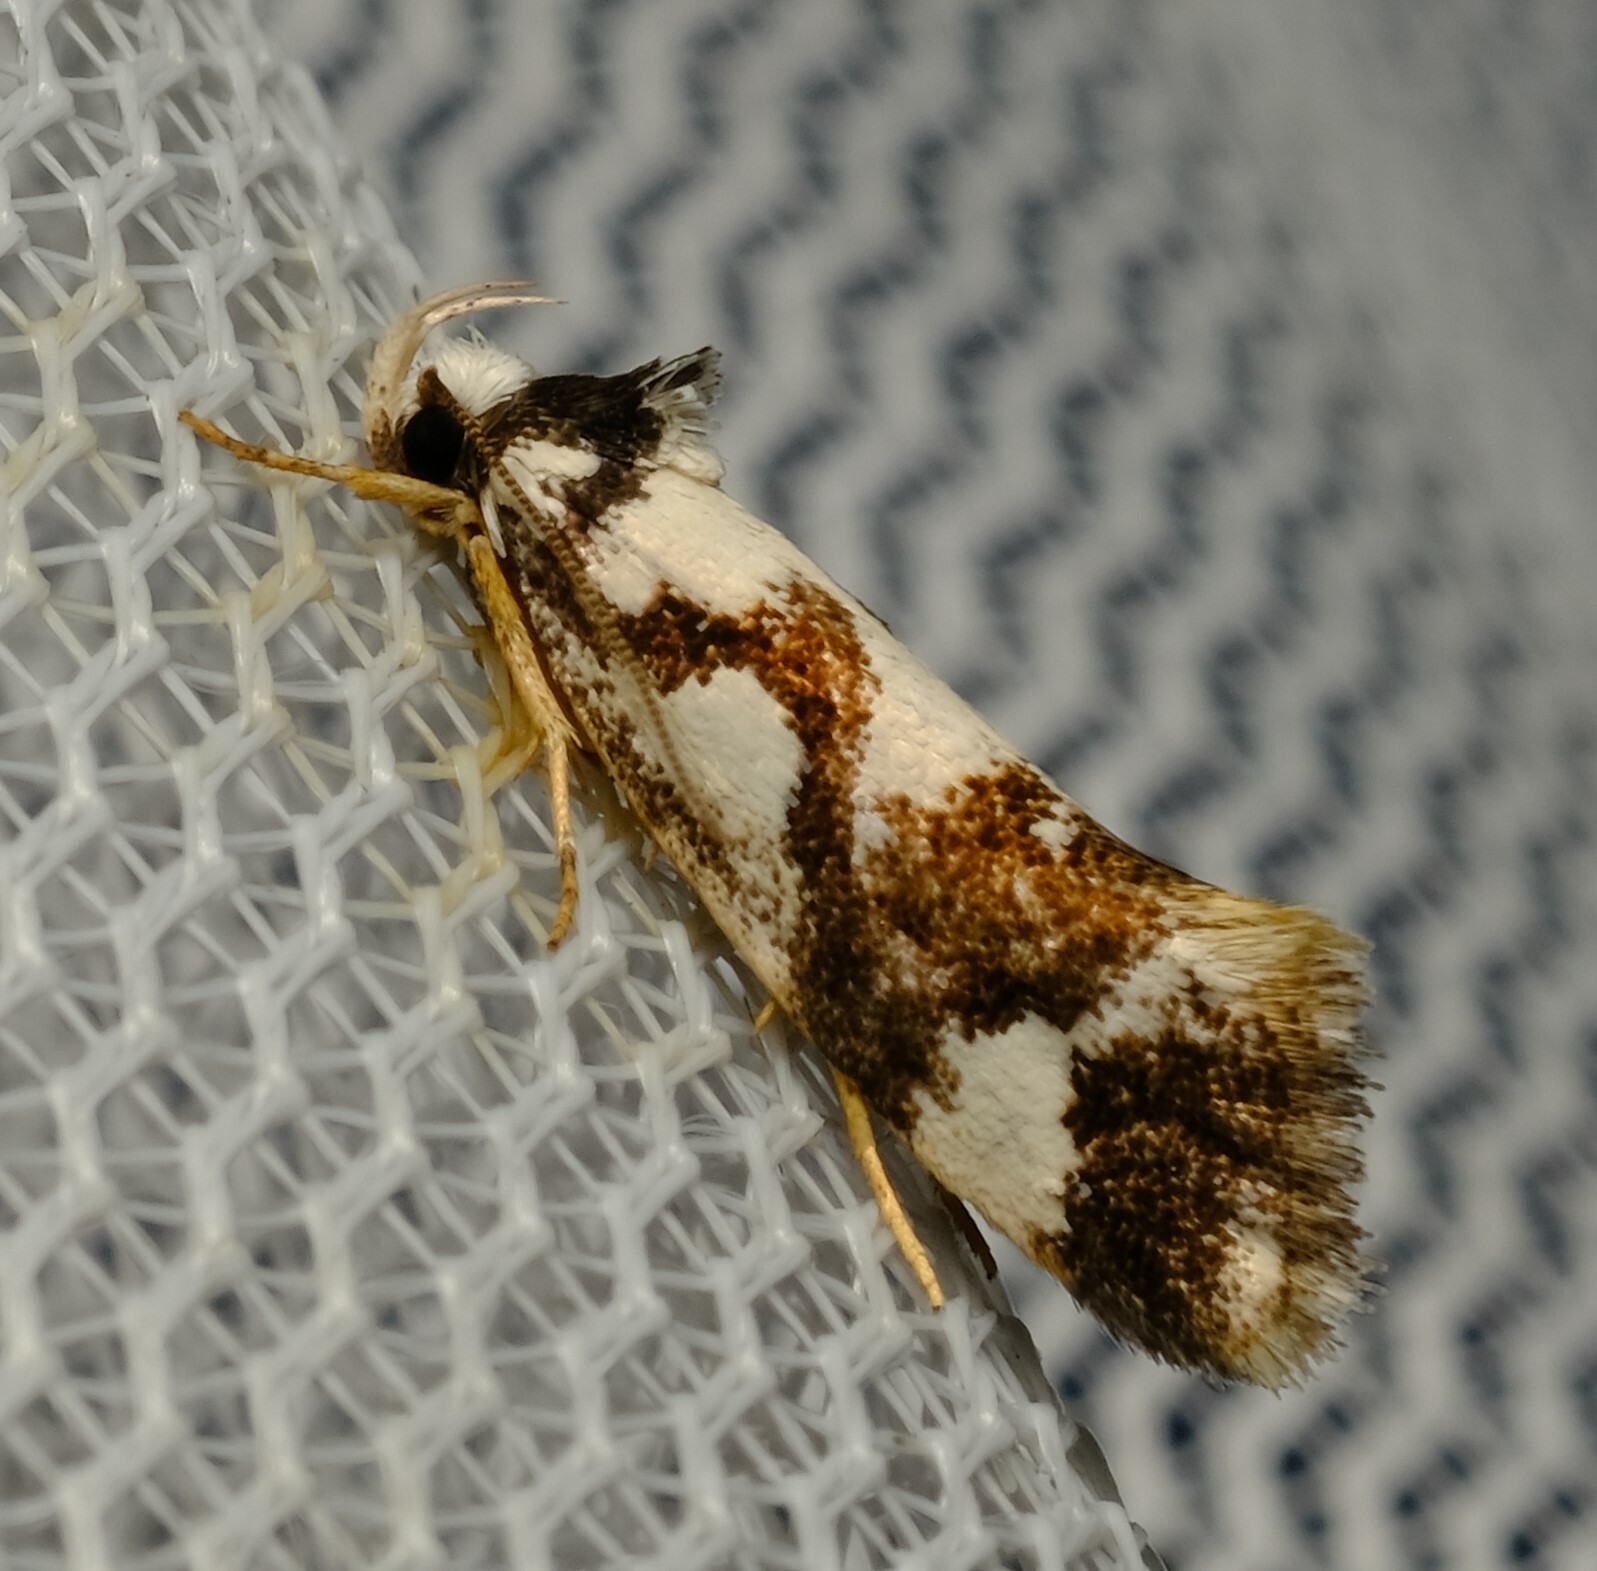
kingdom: Animalia
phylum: Arthropoda
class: Insecta
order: Lepidoptera
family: Oecophoridae
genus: Machetis
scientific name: Machetis aphrobola
